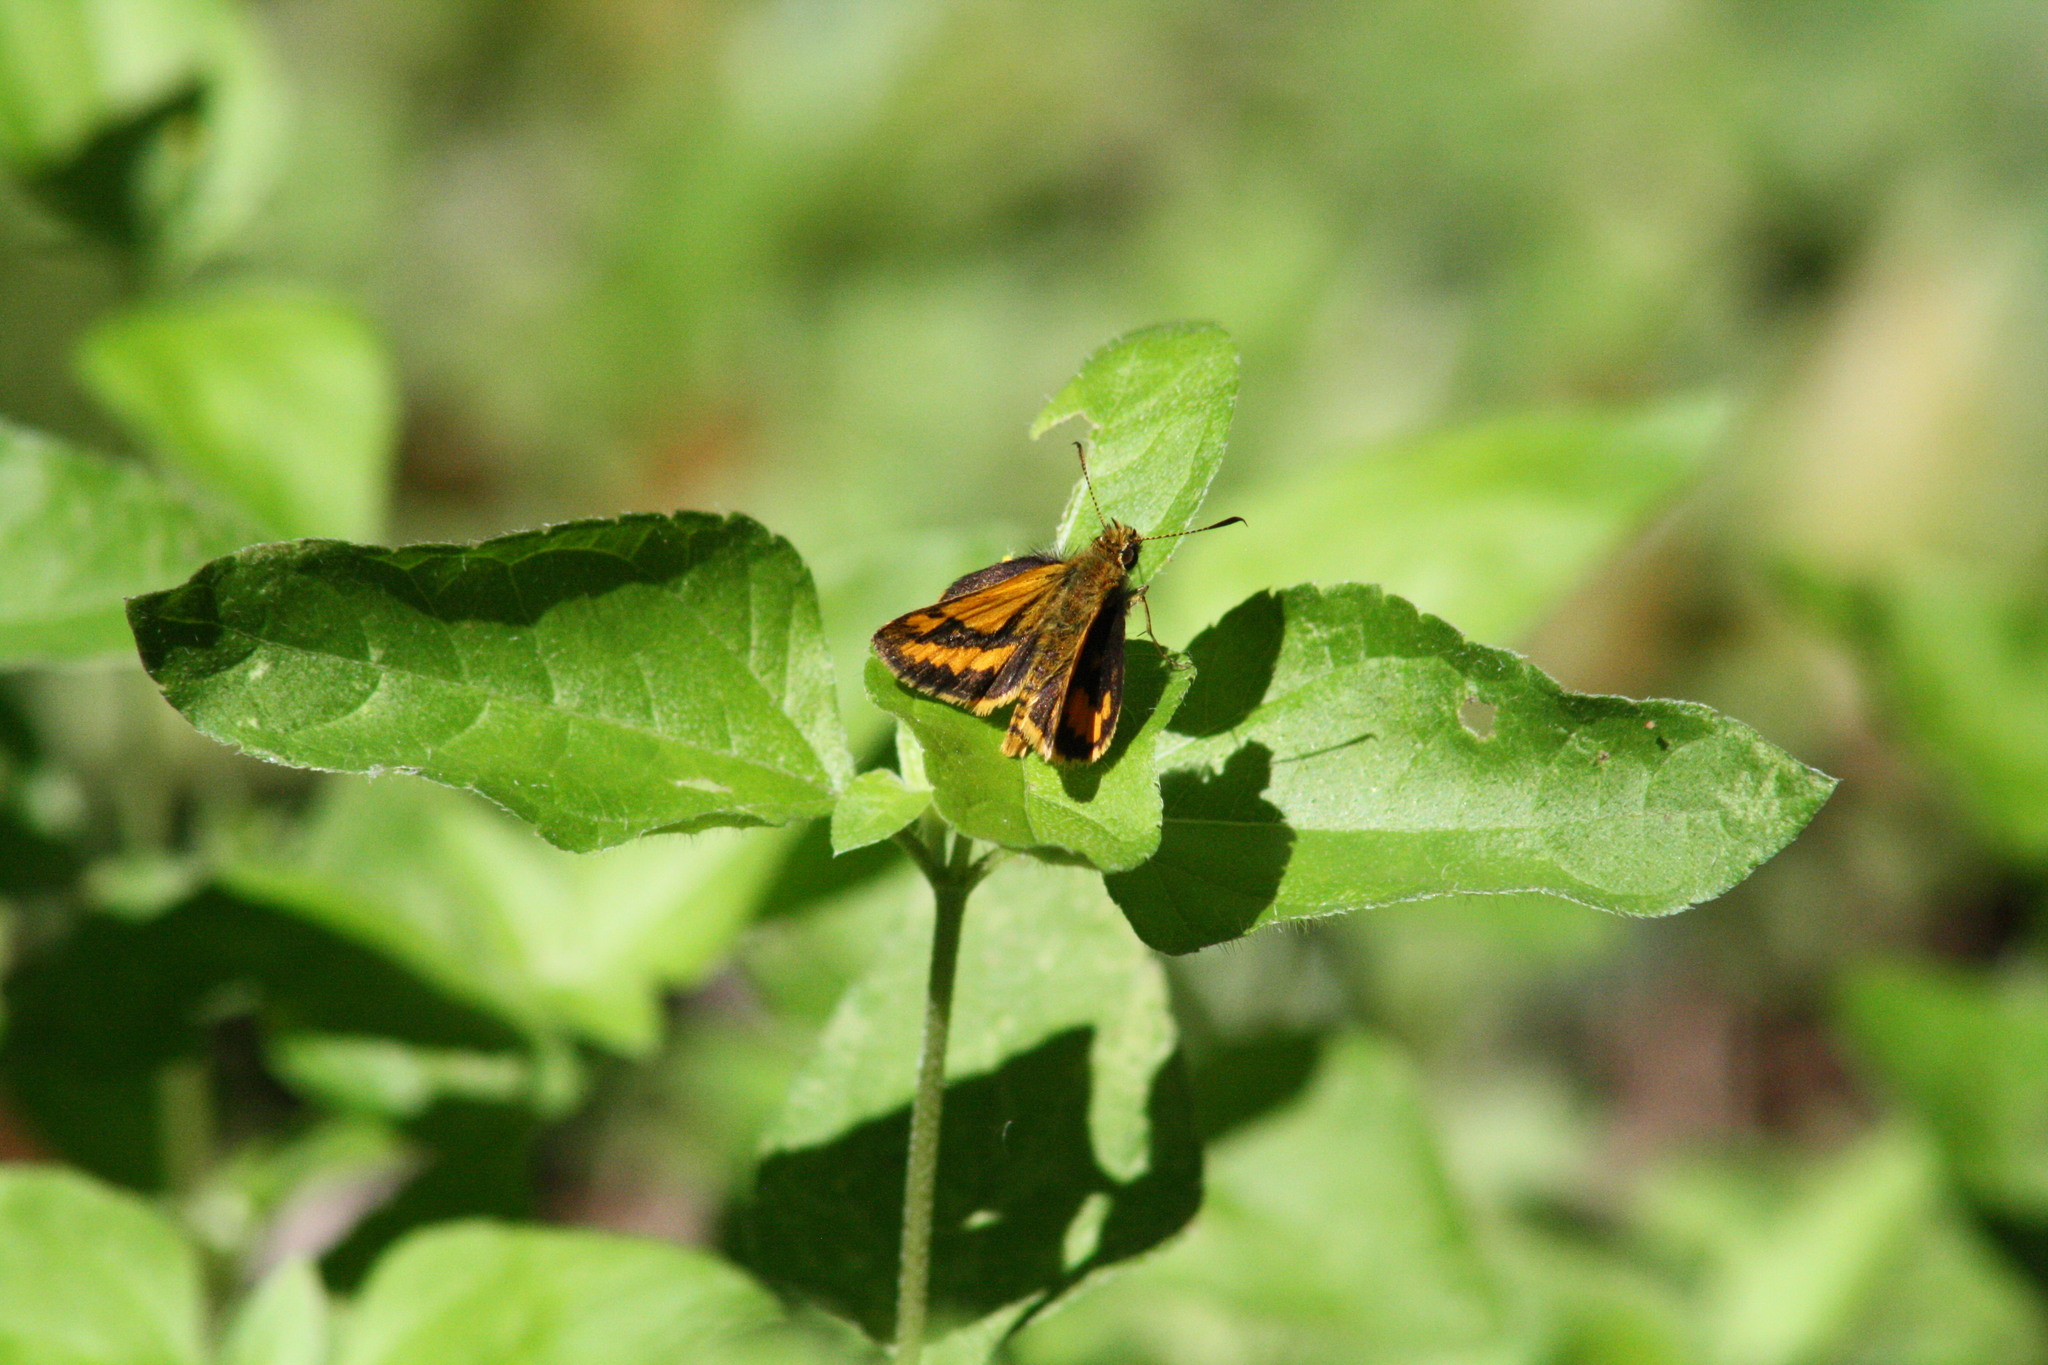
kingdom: Animalia
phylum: Arthropoda
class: Insecta
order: Lepidoptera
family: Hesperiidae
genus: Suniana
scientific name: Suniana sunias
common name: Wide-brand grass-dart
